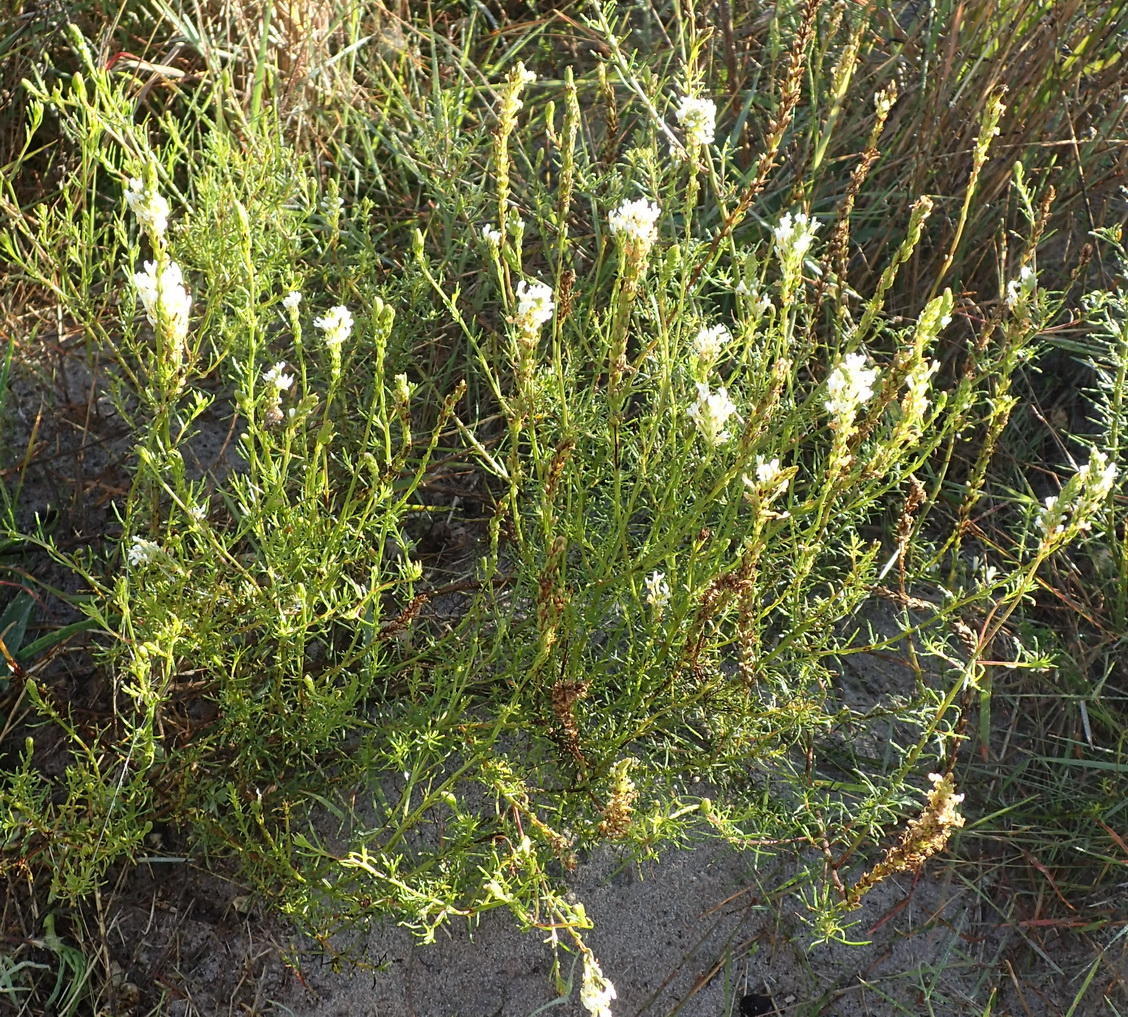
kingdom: Plantae
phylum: Tracheophyta
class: Magnoliopsida
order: Lamiales
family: Scrophulariaceae
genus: Hebenstretia
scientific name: Hebenstretia integrifolia
